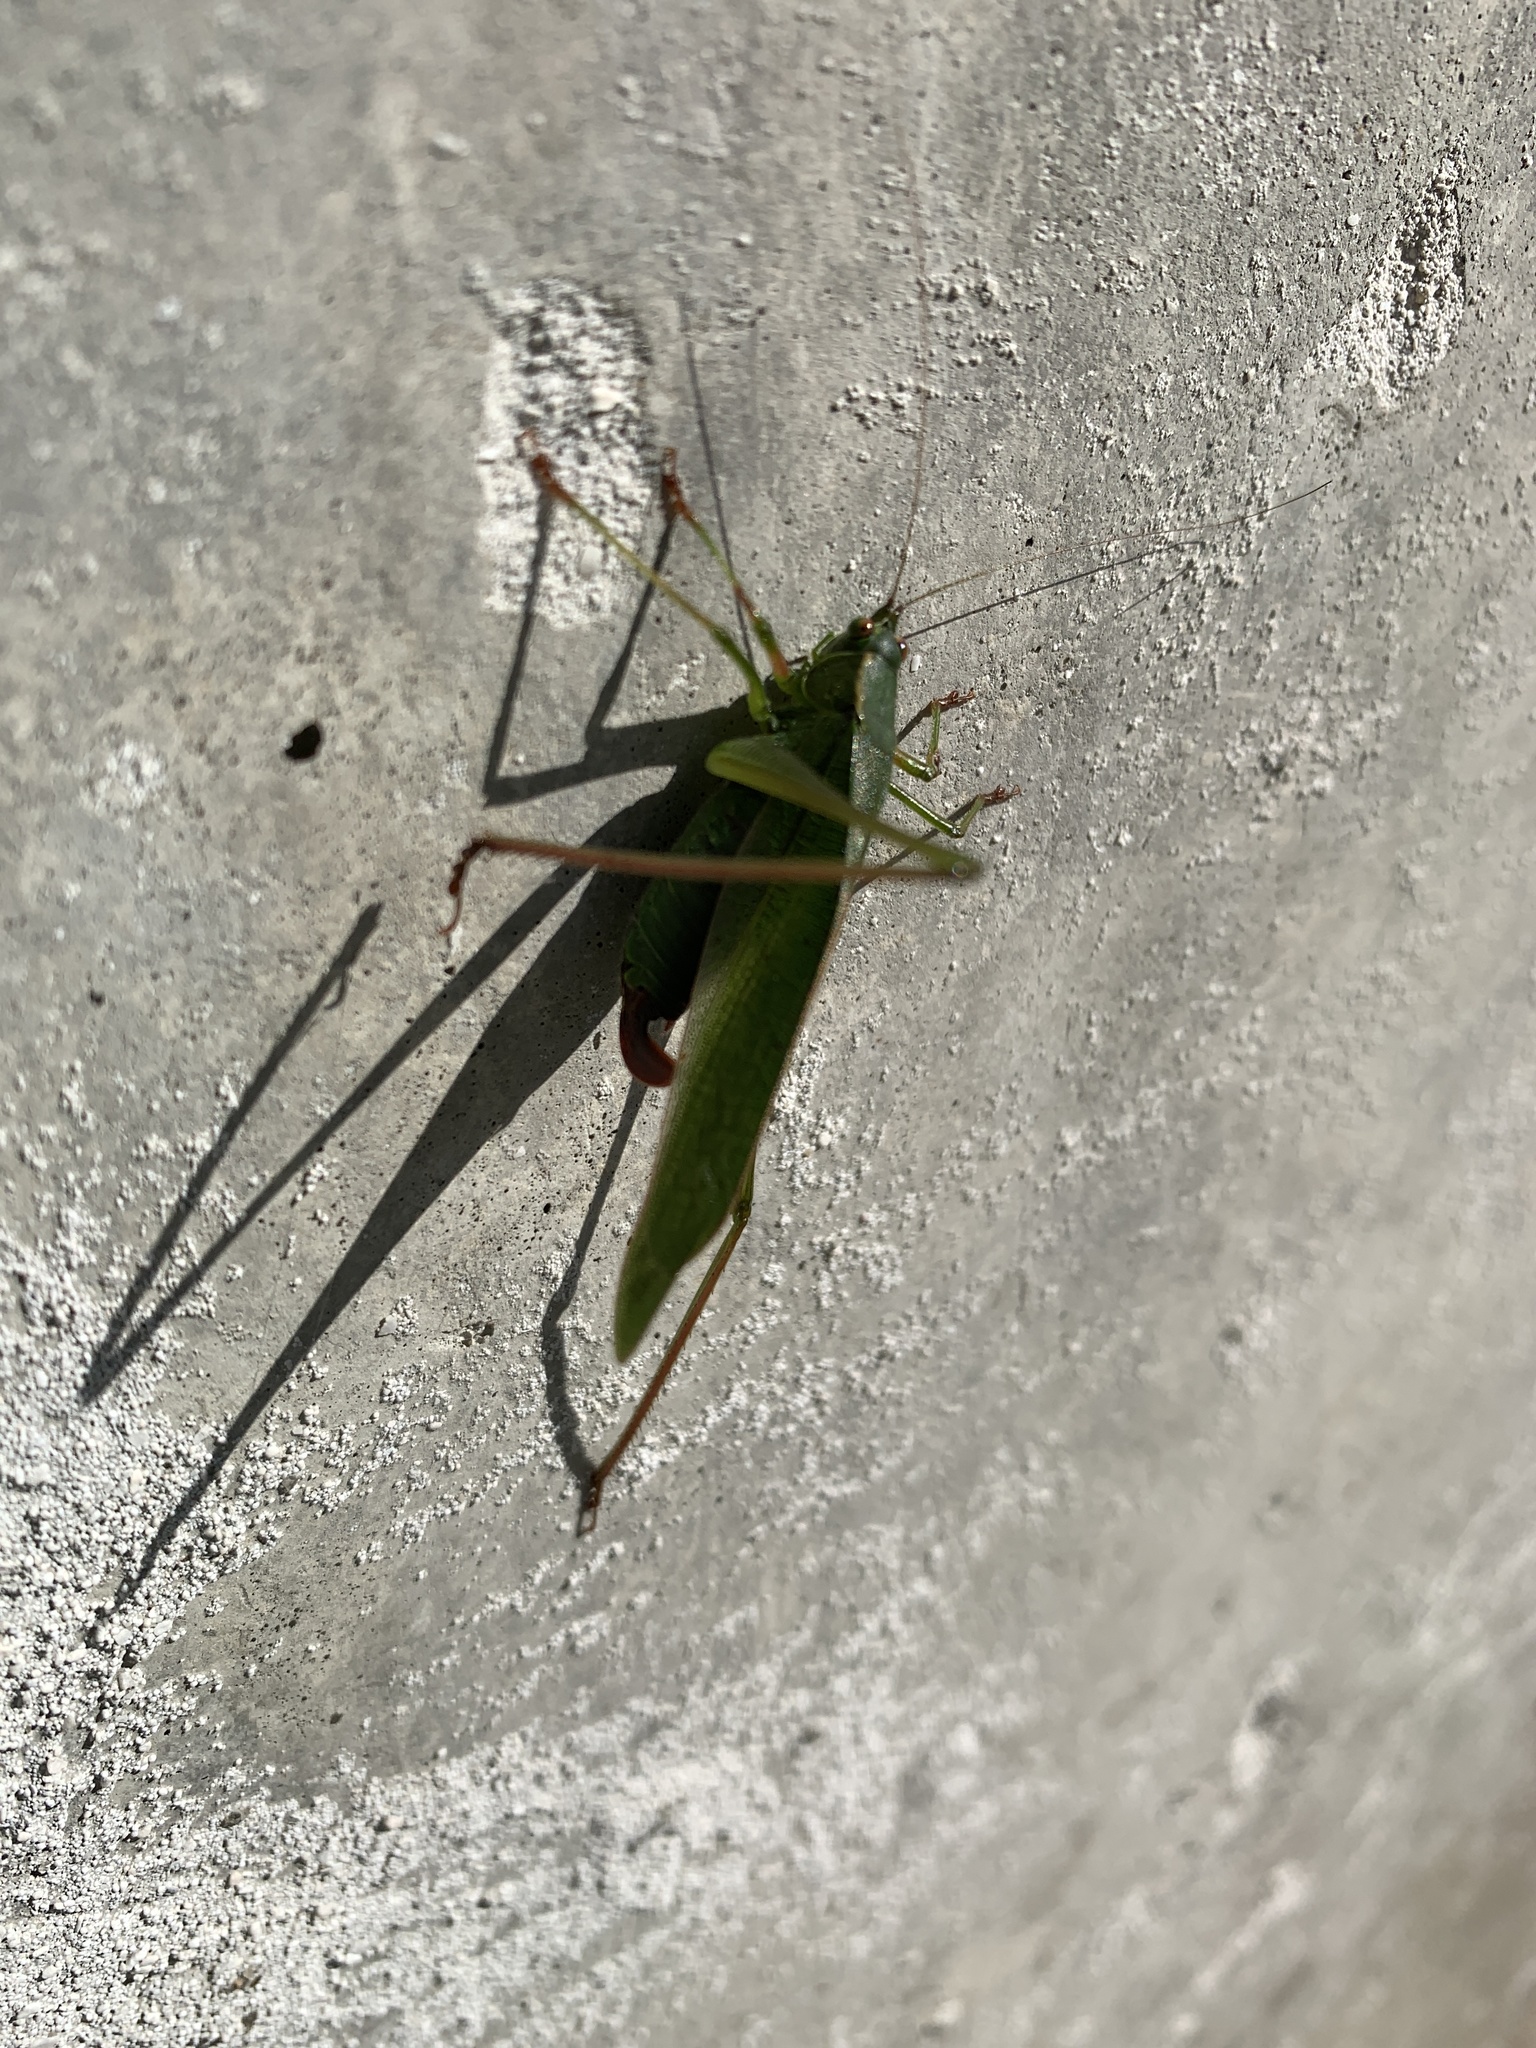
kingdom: Animalia
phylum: Arthropoda
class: Insecta
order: Orthoptera
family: Tettigoniidae
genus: Scudderia
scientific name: Scudderia furcata
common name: Fork-tailed bush katydid
